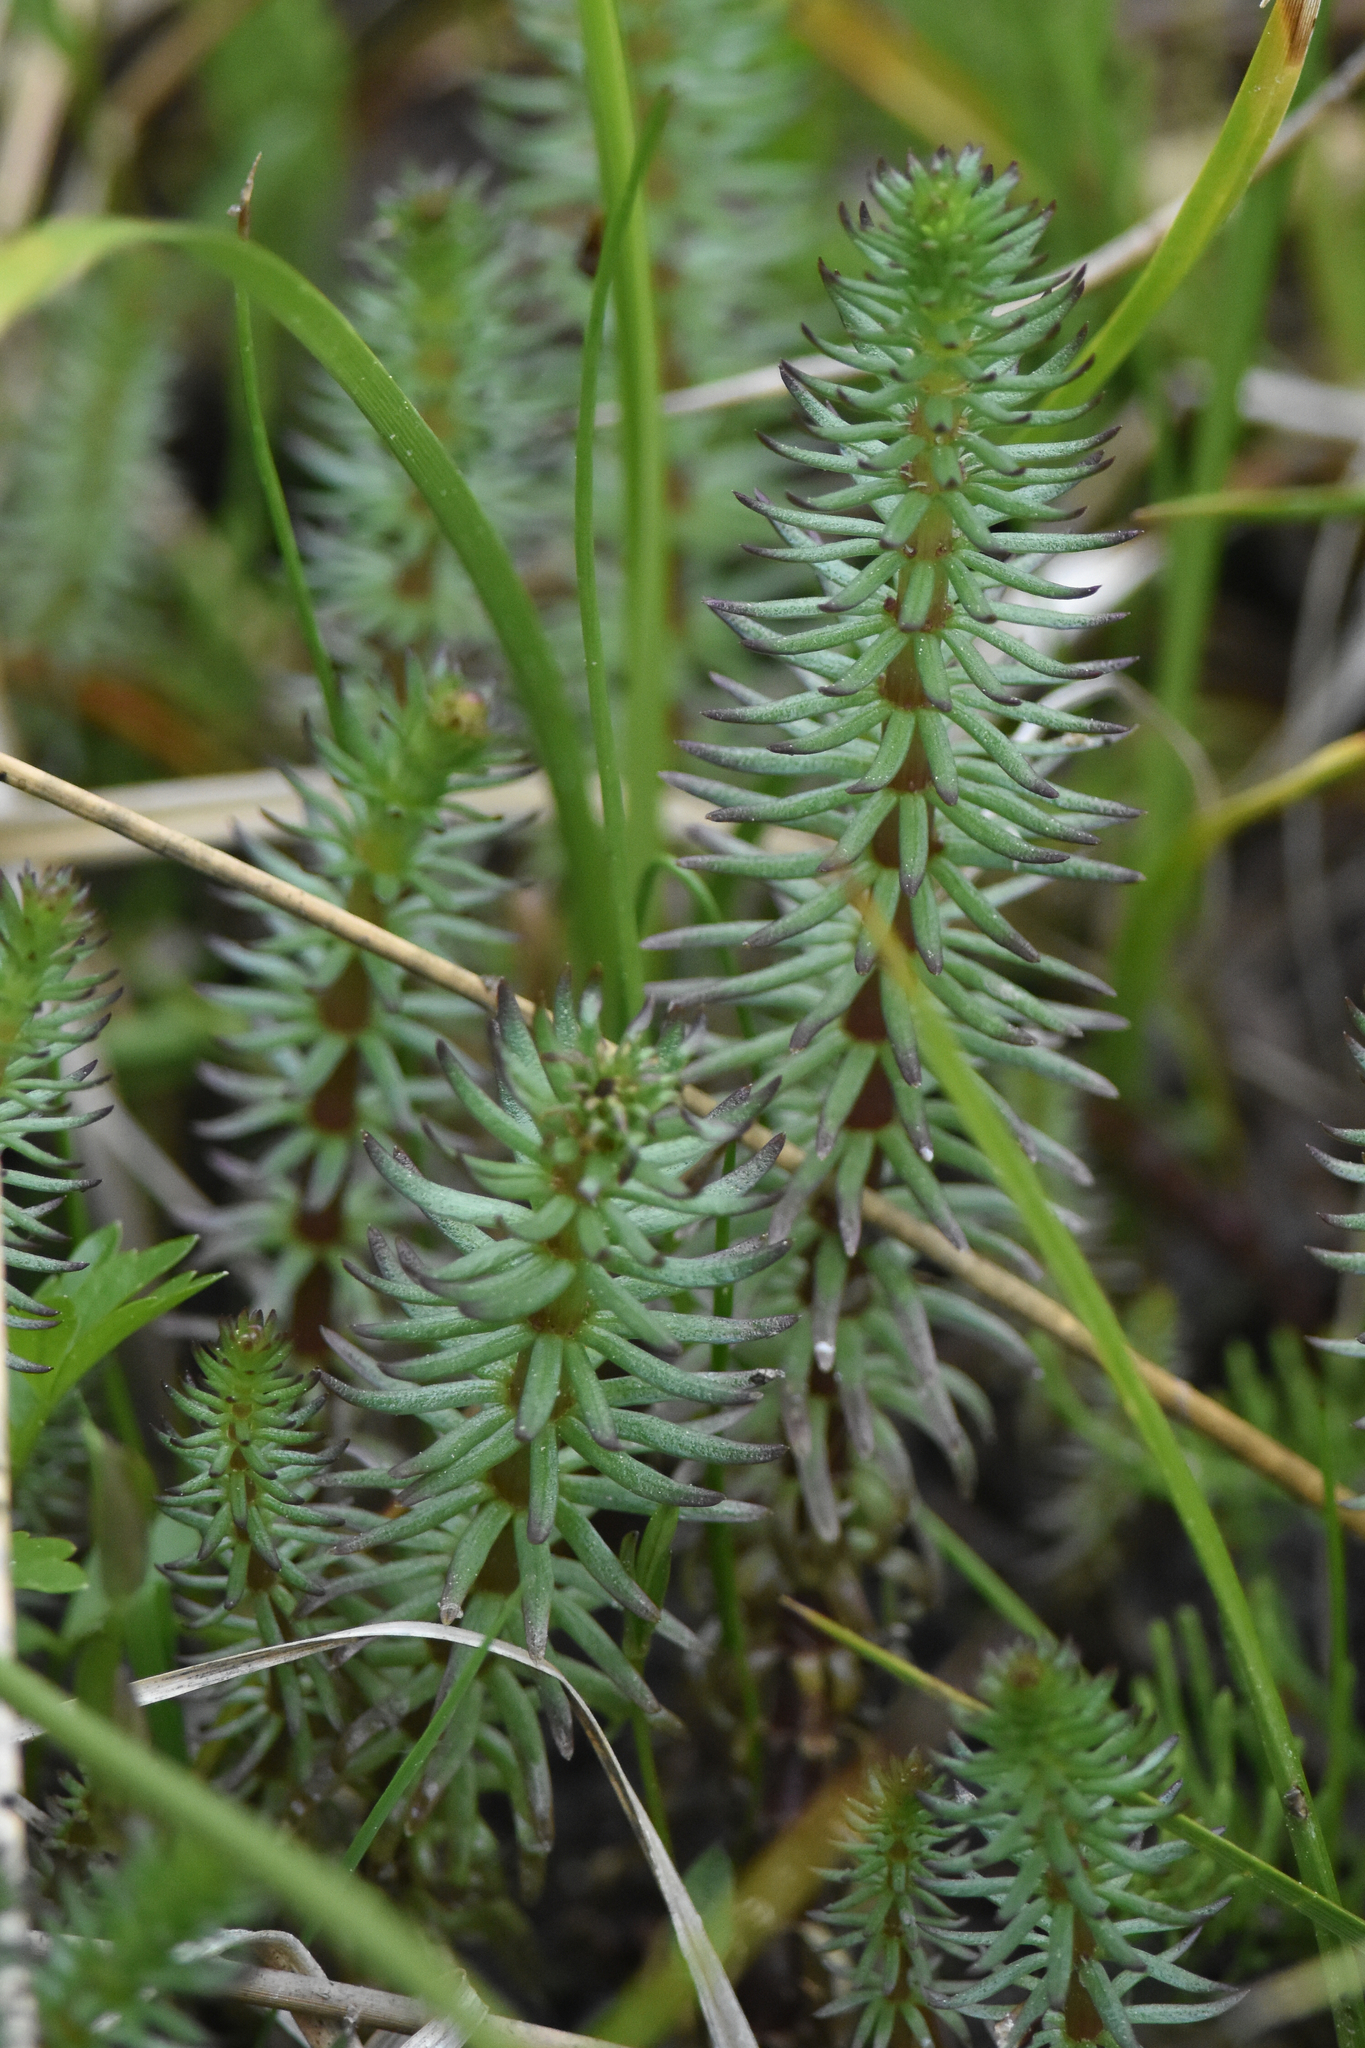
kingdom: Plantae
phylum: Tracheophyta
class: Magnoliopsida
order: Lamiales
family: Plantaginaceae
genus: Hippuris
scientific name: Hippuris vulgaris
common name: Mare's-tail
